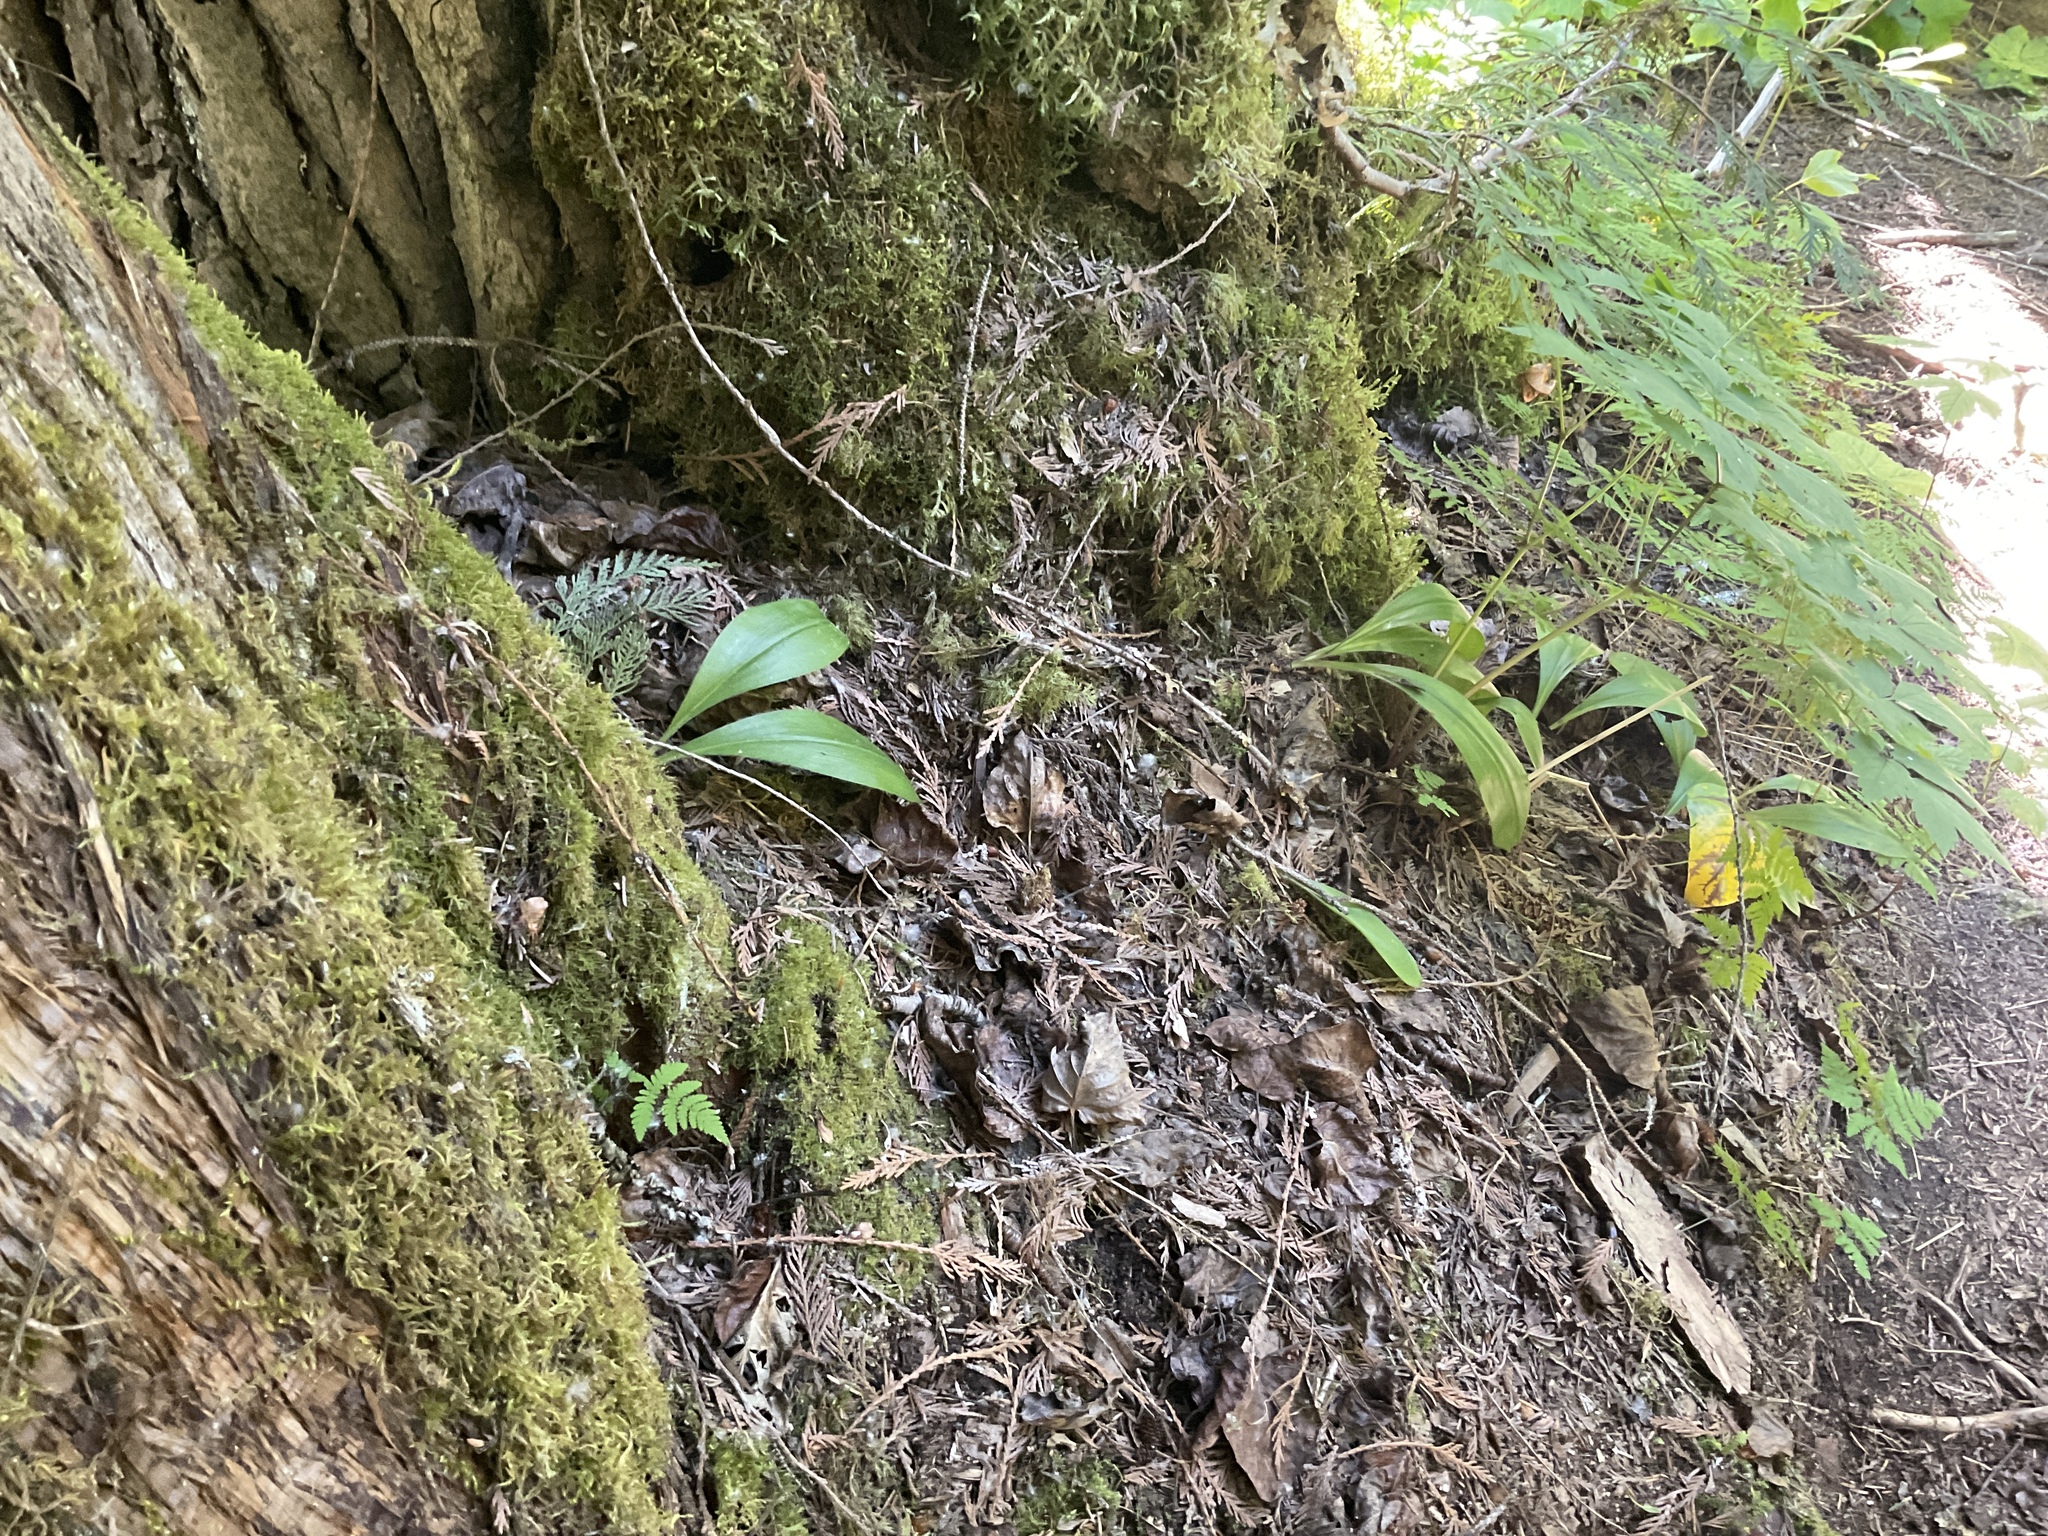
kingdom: Plantae
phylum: Tracheophyta
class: Liliopsida
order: Liliales
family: Liliaceae
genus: Clintonia
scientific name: Clintonia uniflora
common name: Queen's cup
